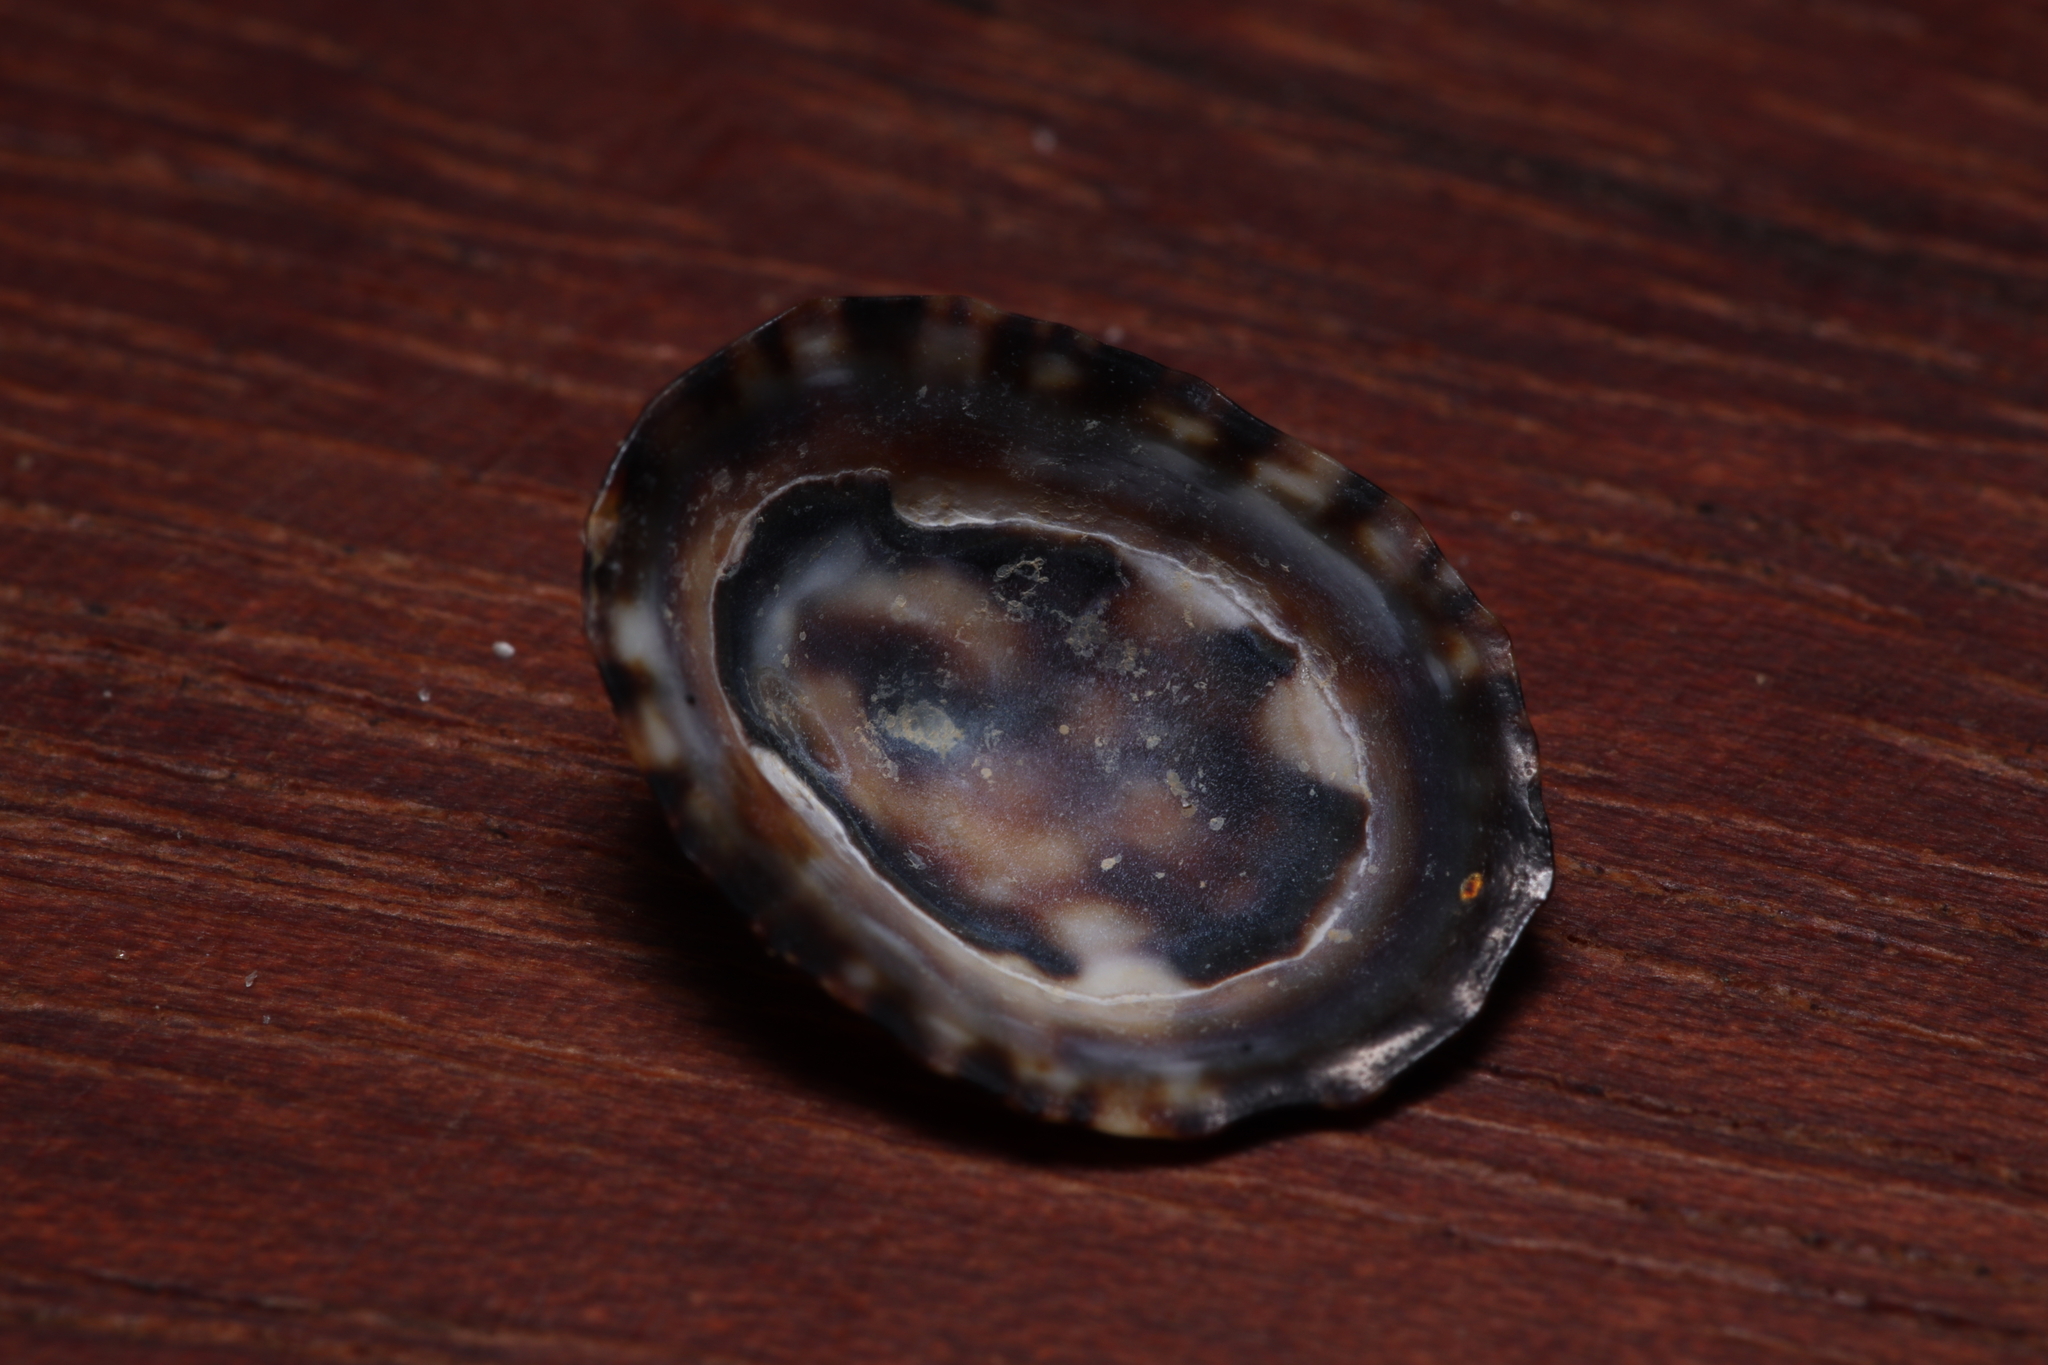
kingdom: Animalia
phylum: Mollusca
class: Gastropoda
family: Lottiidae
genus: Lottia
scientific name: Lottia subrugosa
